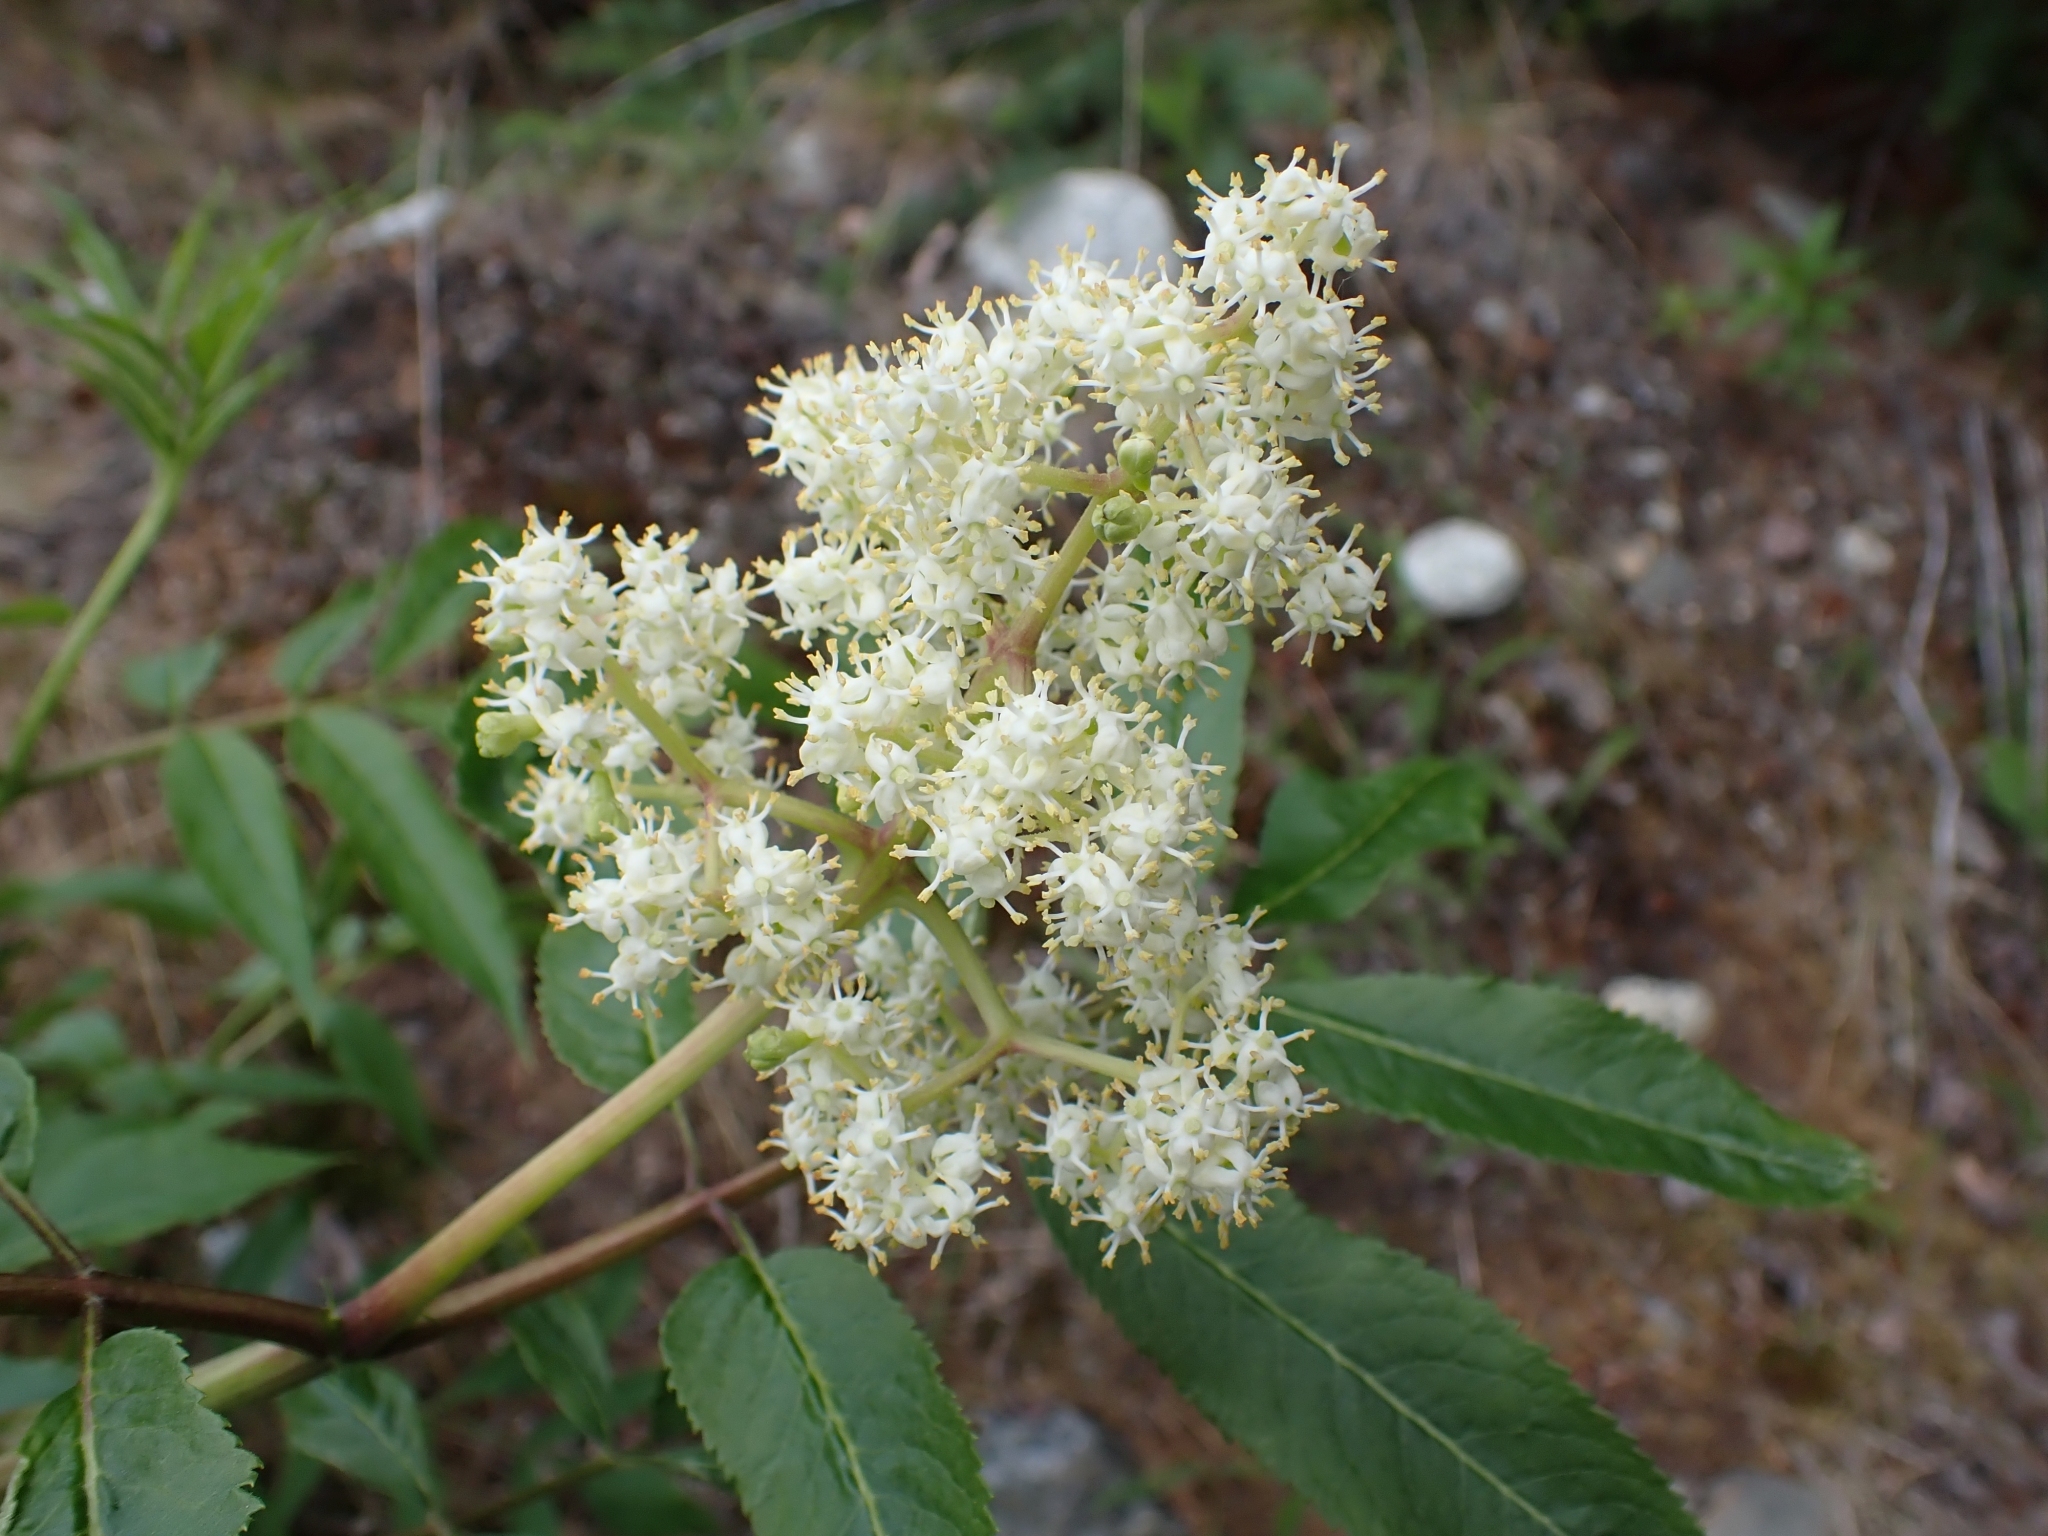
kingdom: Plantae
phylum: Tracheophyta
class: Magnoliopsida
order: Dipsacales
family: Viburnaceae
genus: Sambucus
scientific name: Sambucus racemosa
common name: Red-berried elder
